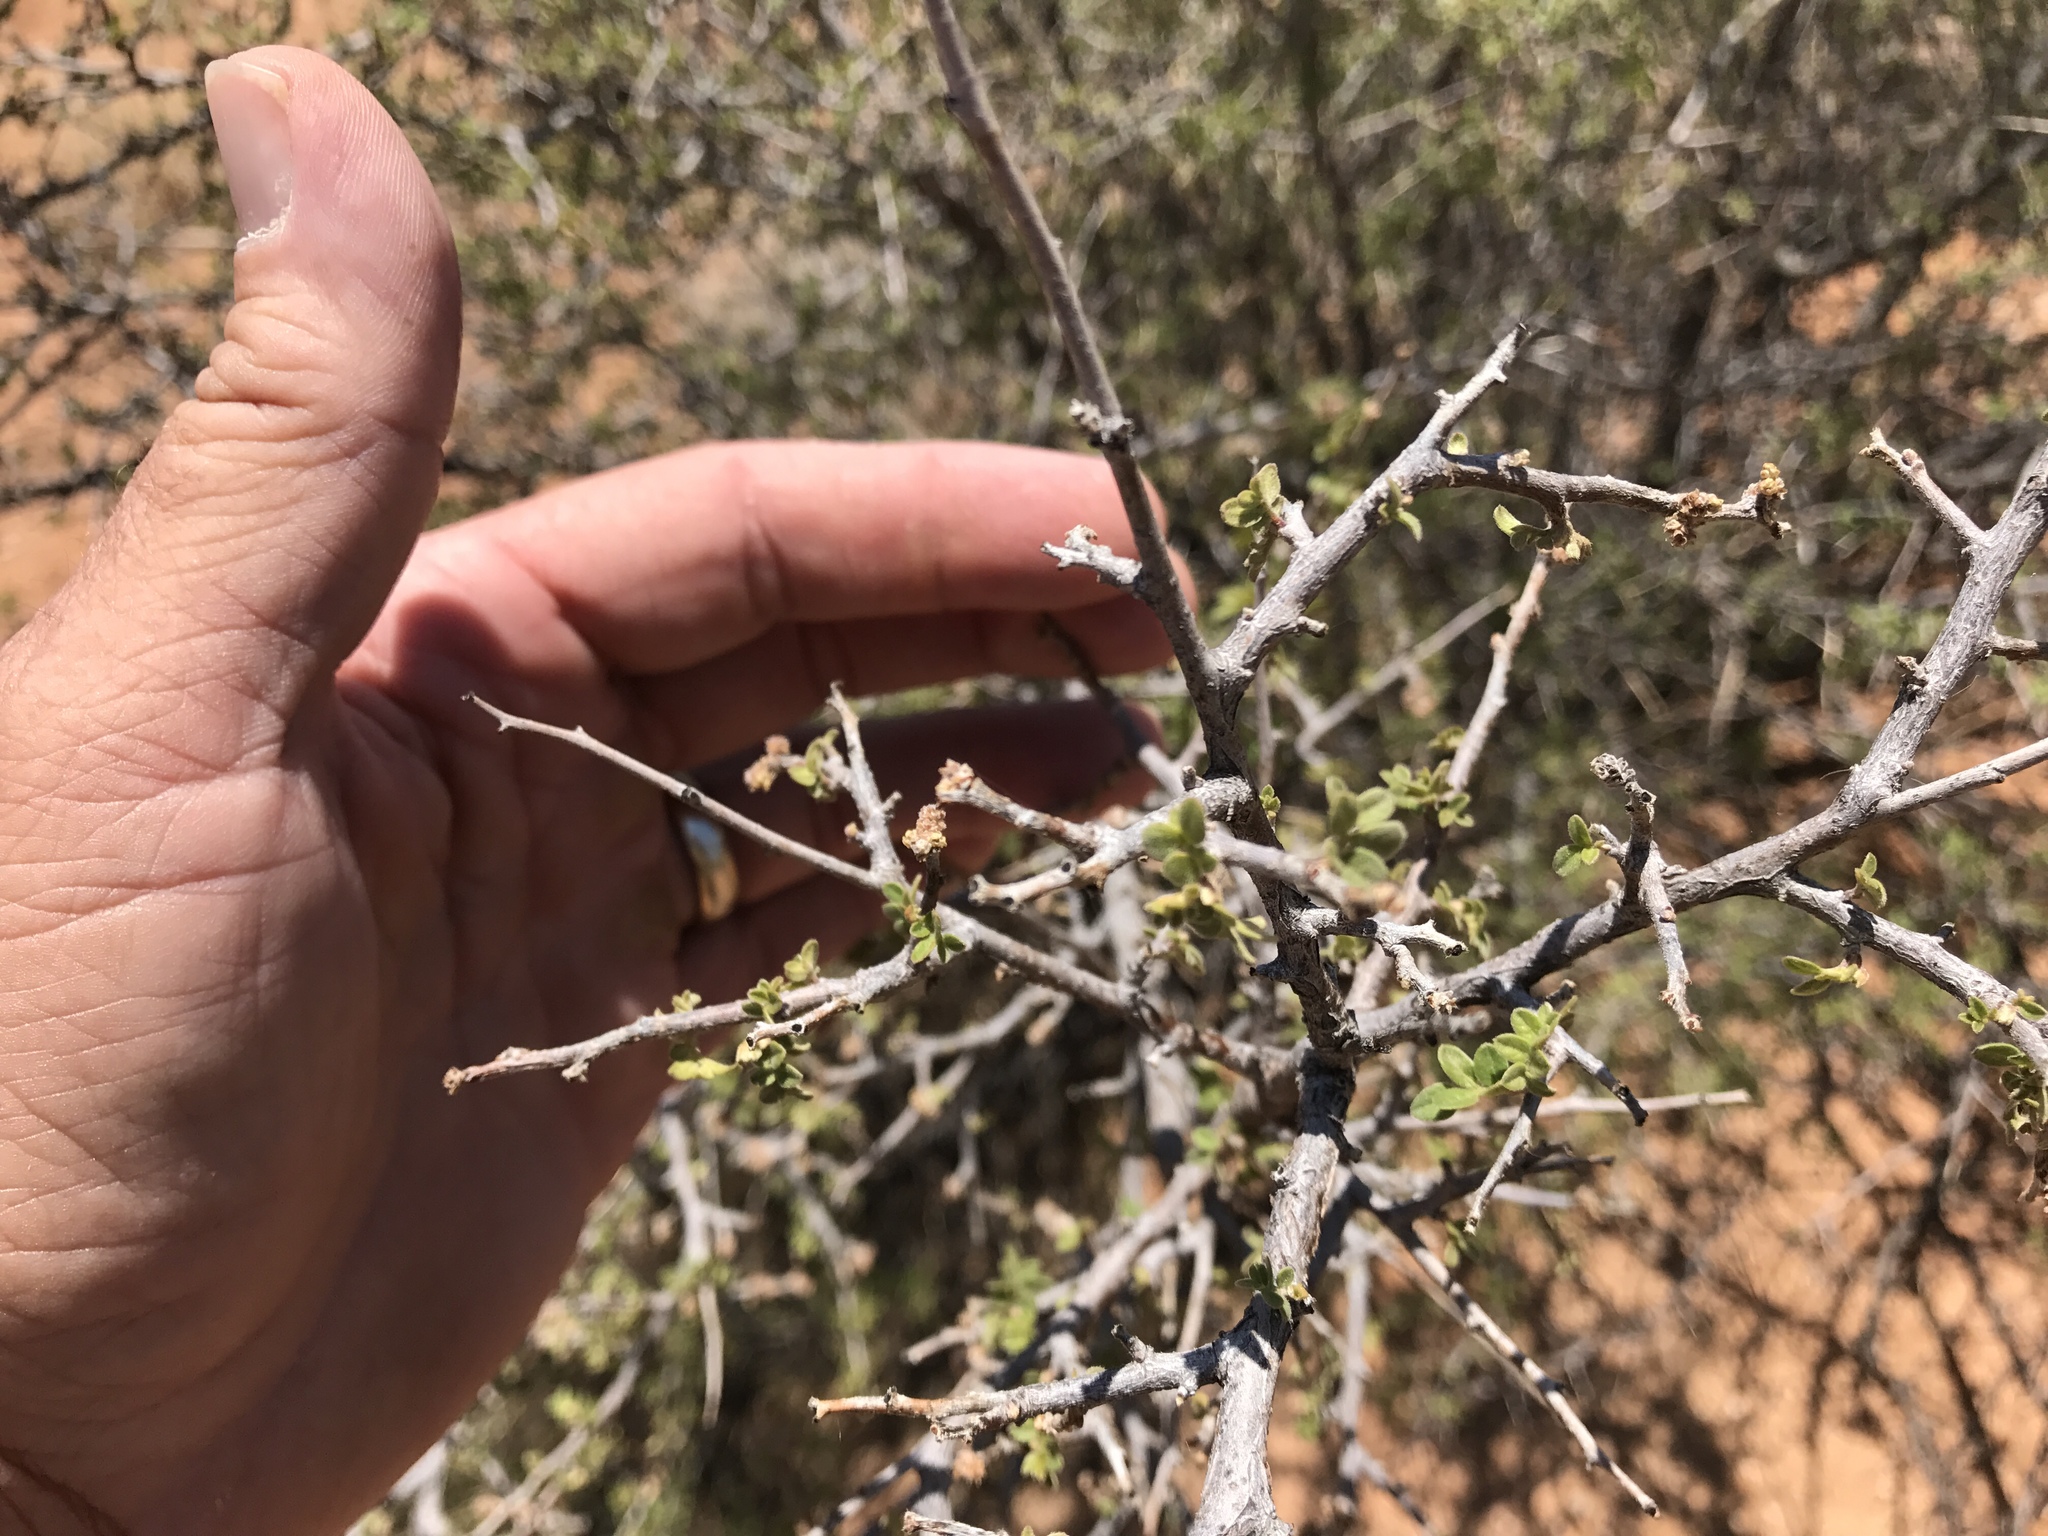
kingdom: Plantae
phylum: Tracheophyta
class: Magnoliopsida
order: Sapindales
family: Anacardiaceae
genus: Rhus
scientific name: Rhus microphylla
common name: Desert sumac
